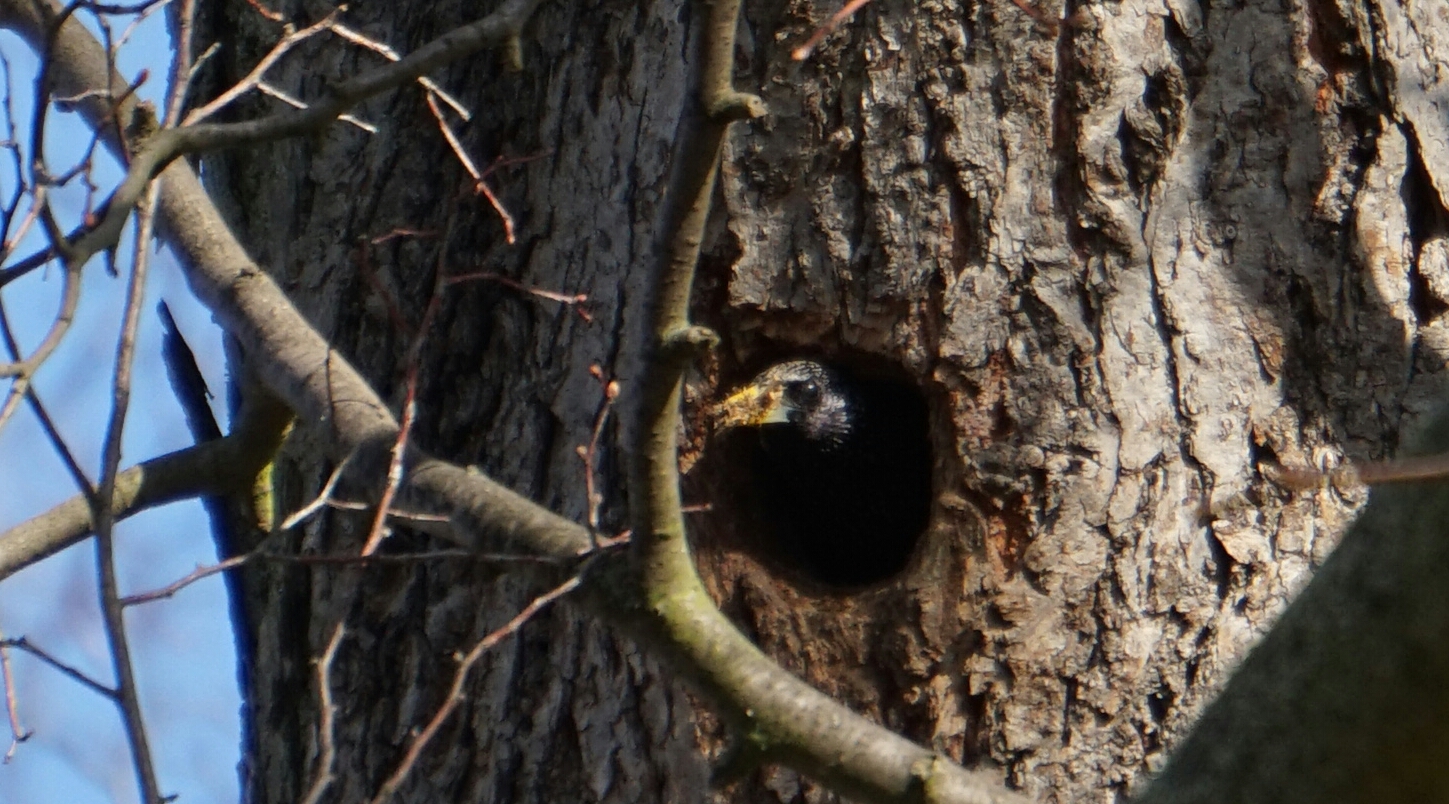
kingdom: Animalia
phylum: Chordata
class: Aves
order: Passeriformes
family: Sturnidae
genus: Sturnus
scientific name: Sturnus vulgaris
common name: Common starling
